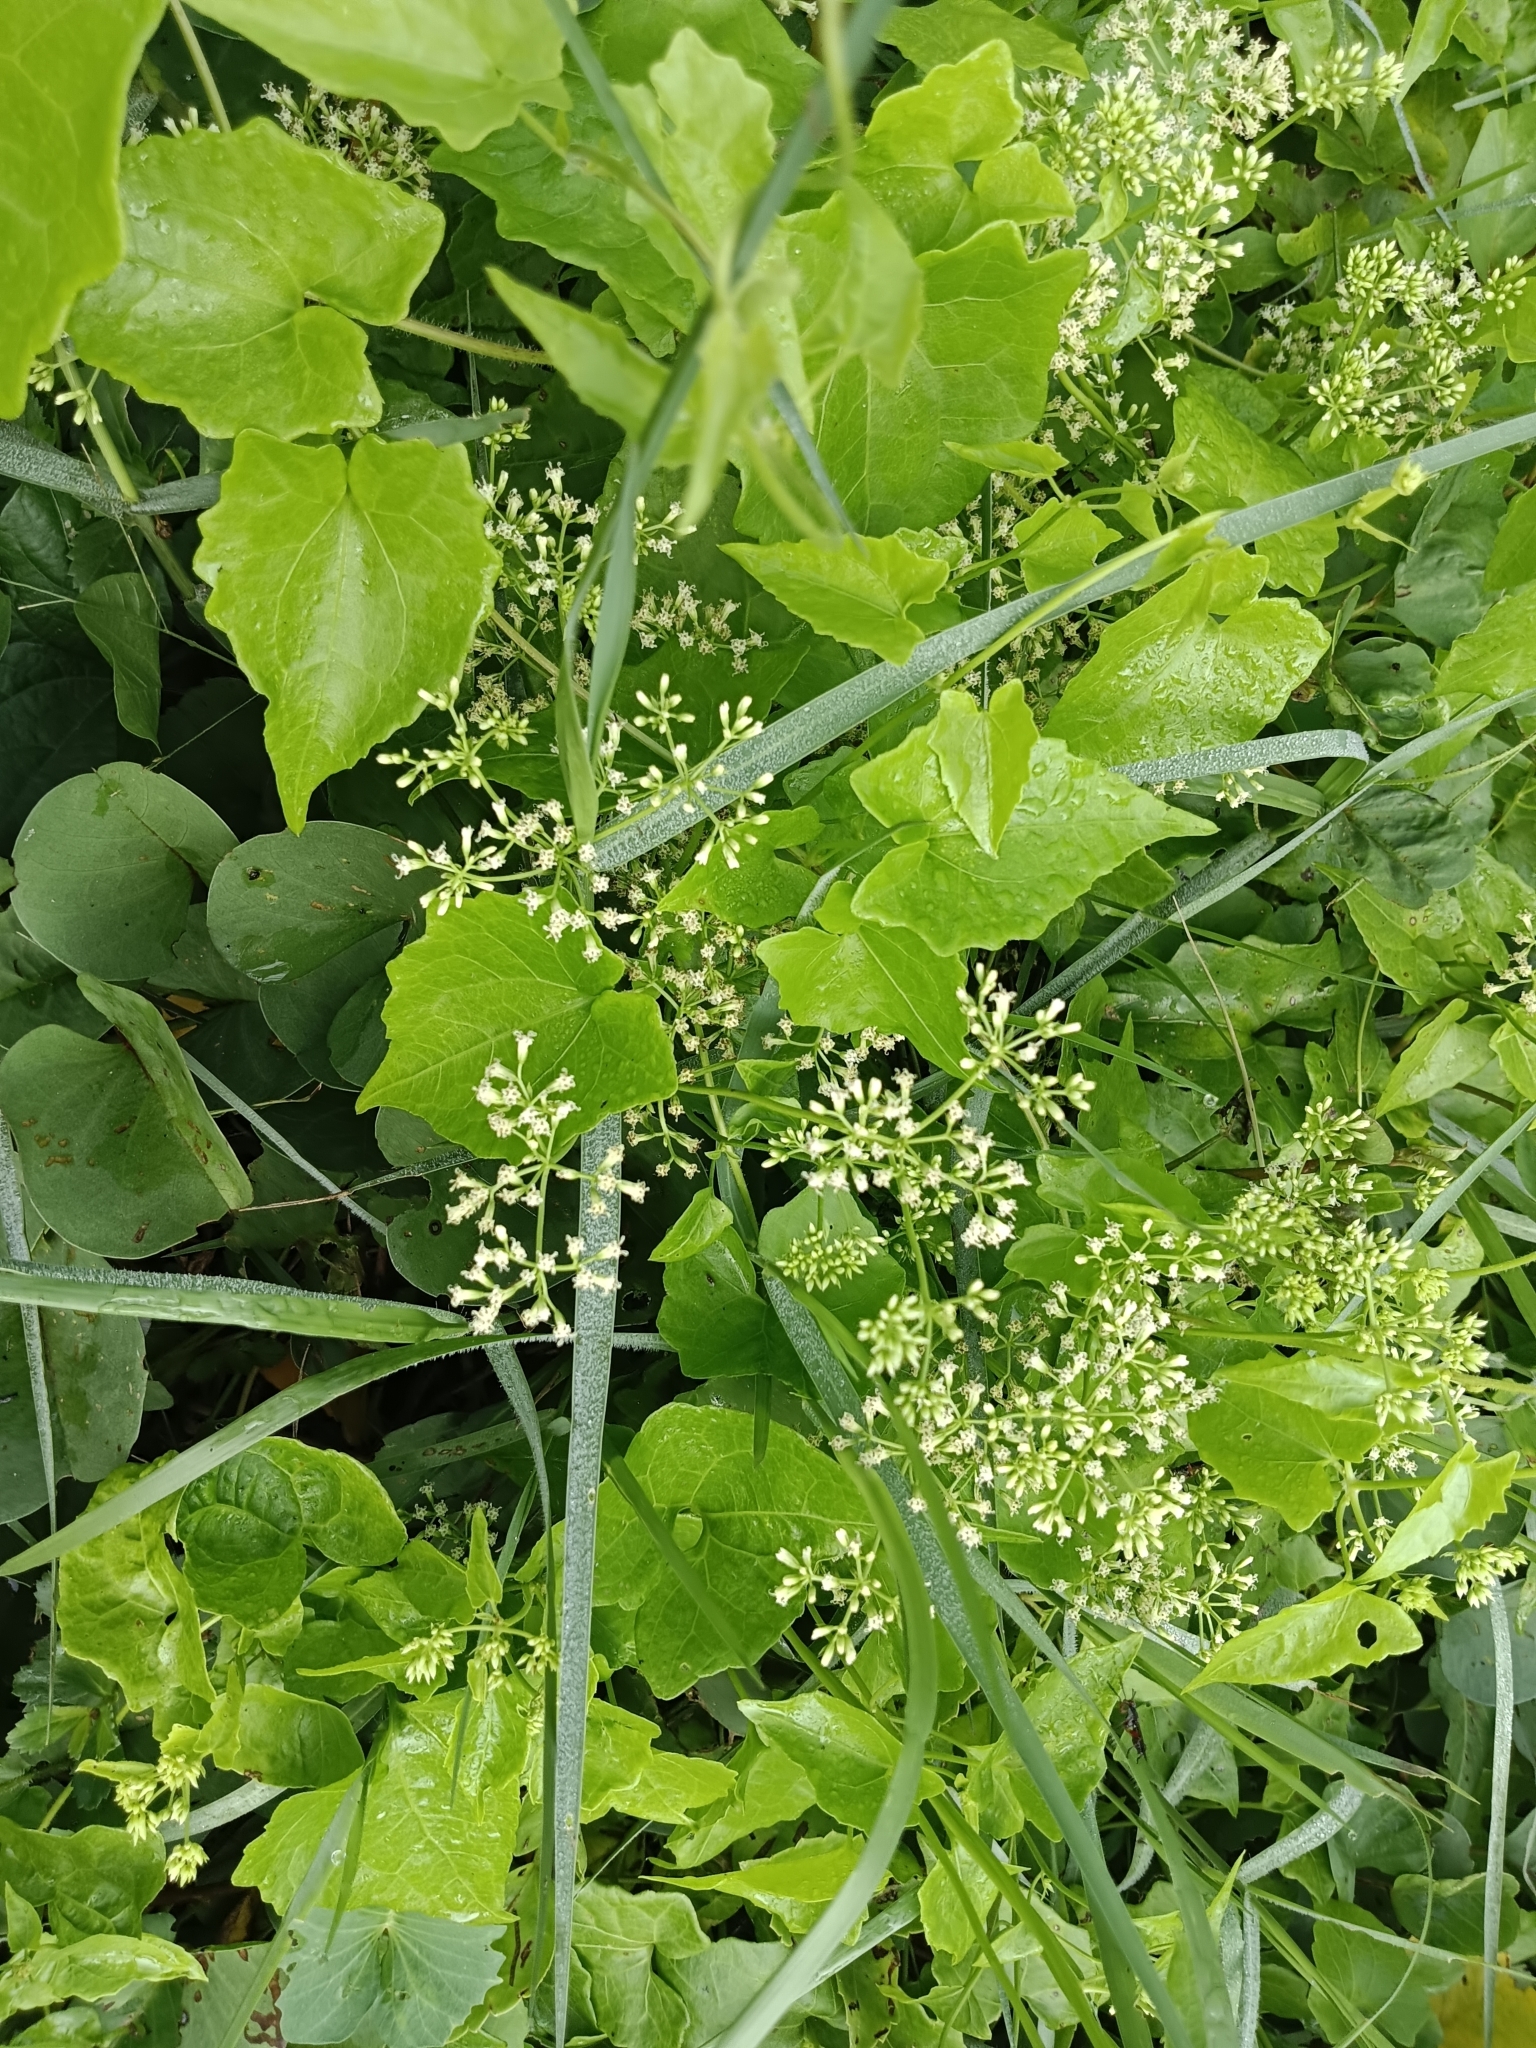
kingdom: Plantae
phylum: Tracheophyta
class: Magnoliopsida
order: Asterales
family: Asteraceae
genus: Mikania
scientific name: Mikania micrantha
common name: Mile-a-minute
